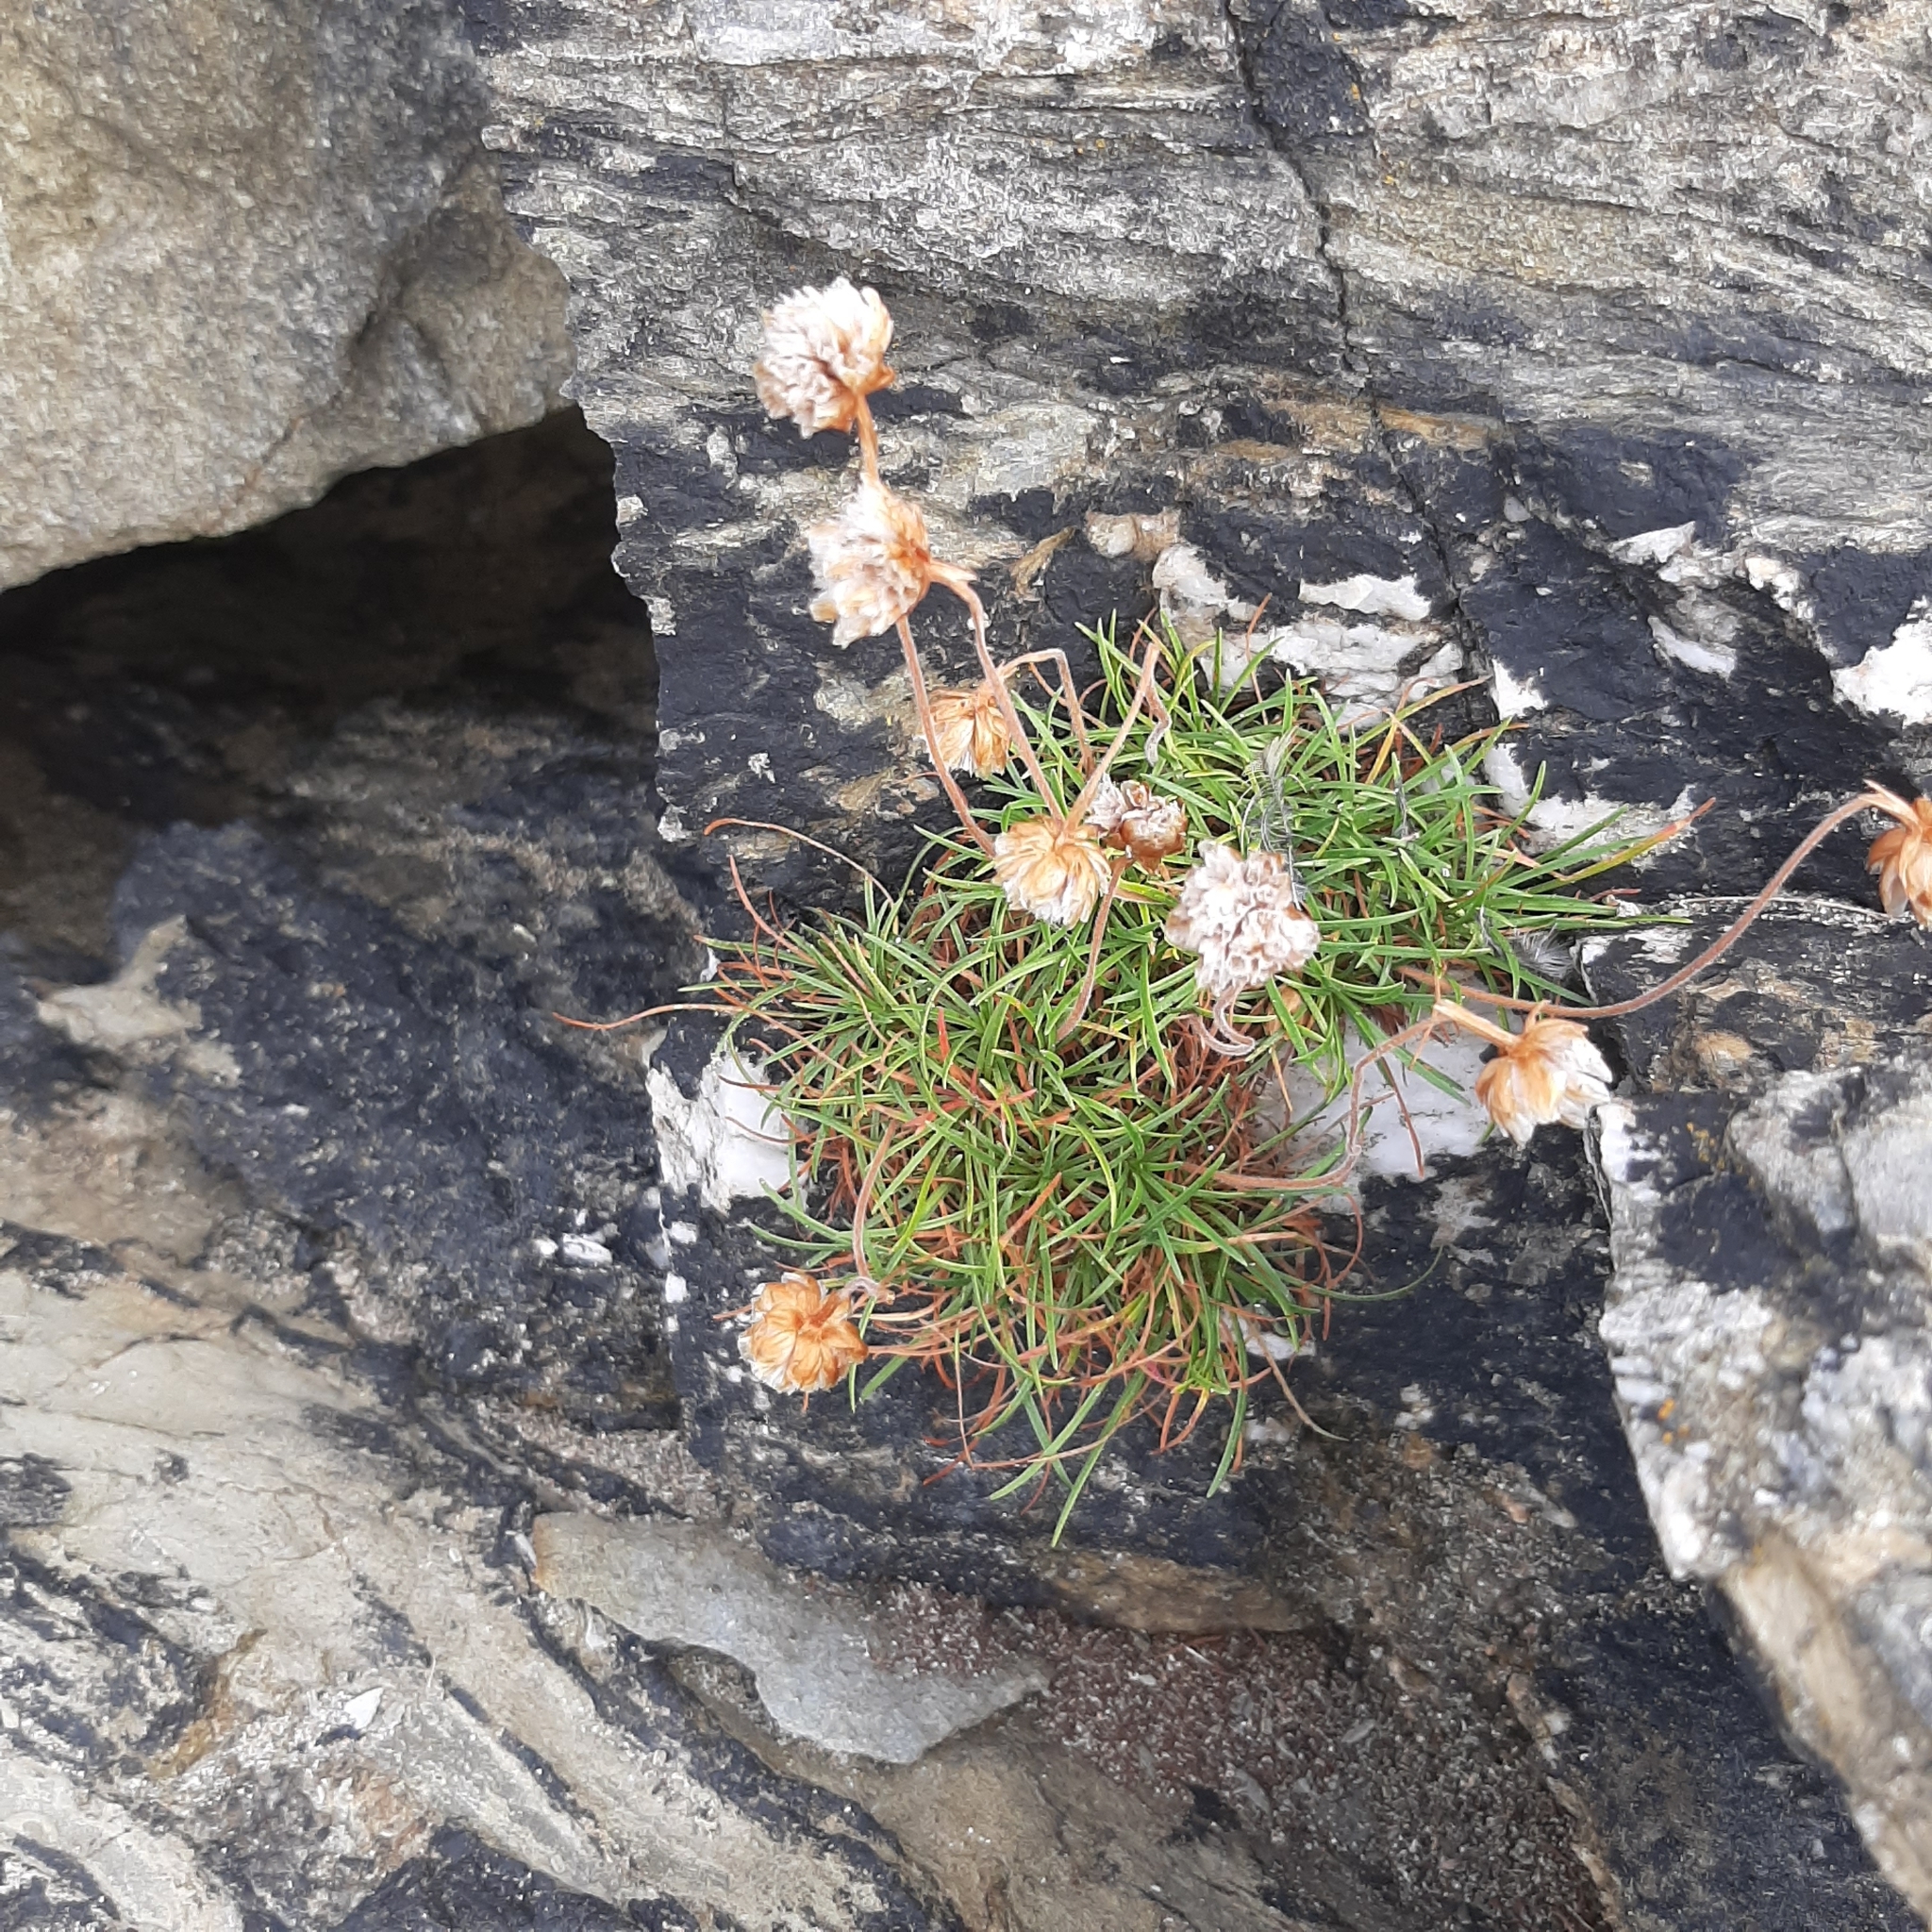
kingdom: Plantae
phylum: Tracheophyta
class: Magnoliopsida
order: Caryophyllales
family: Plumbaginaceae
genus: Armeria
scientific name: Armeria maritima
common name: Thrift
